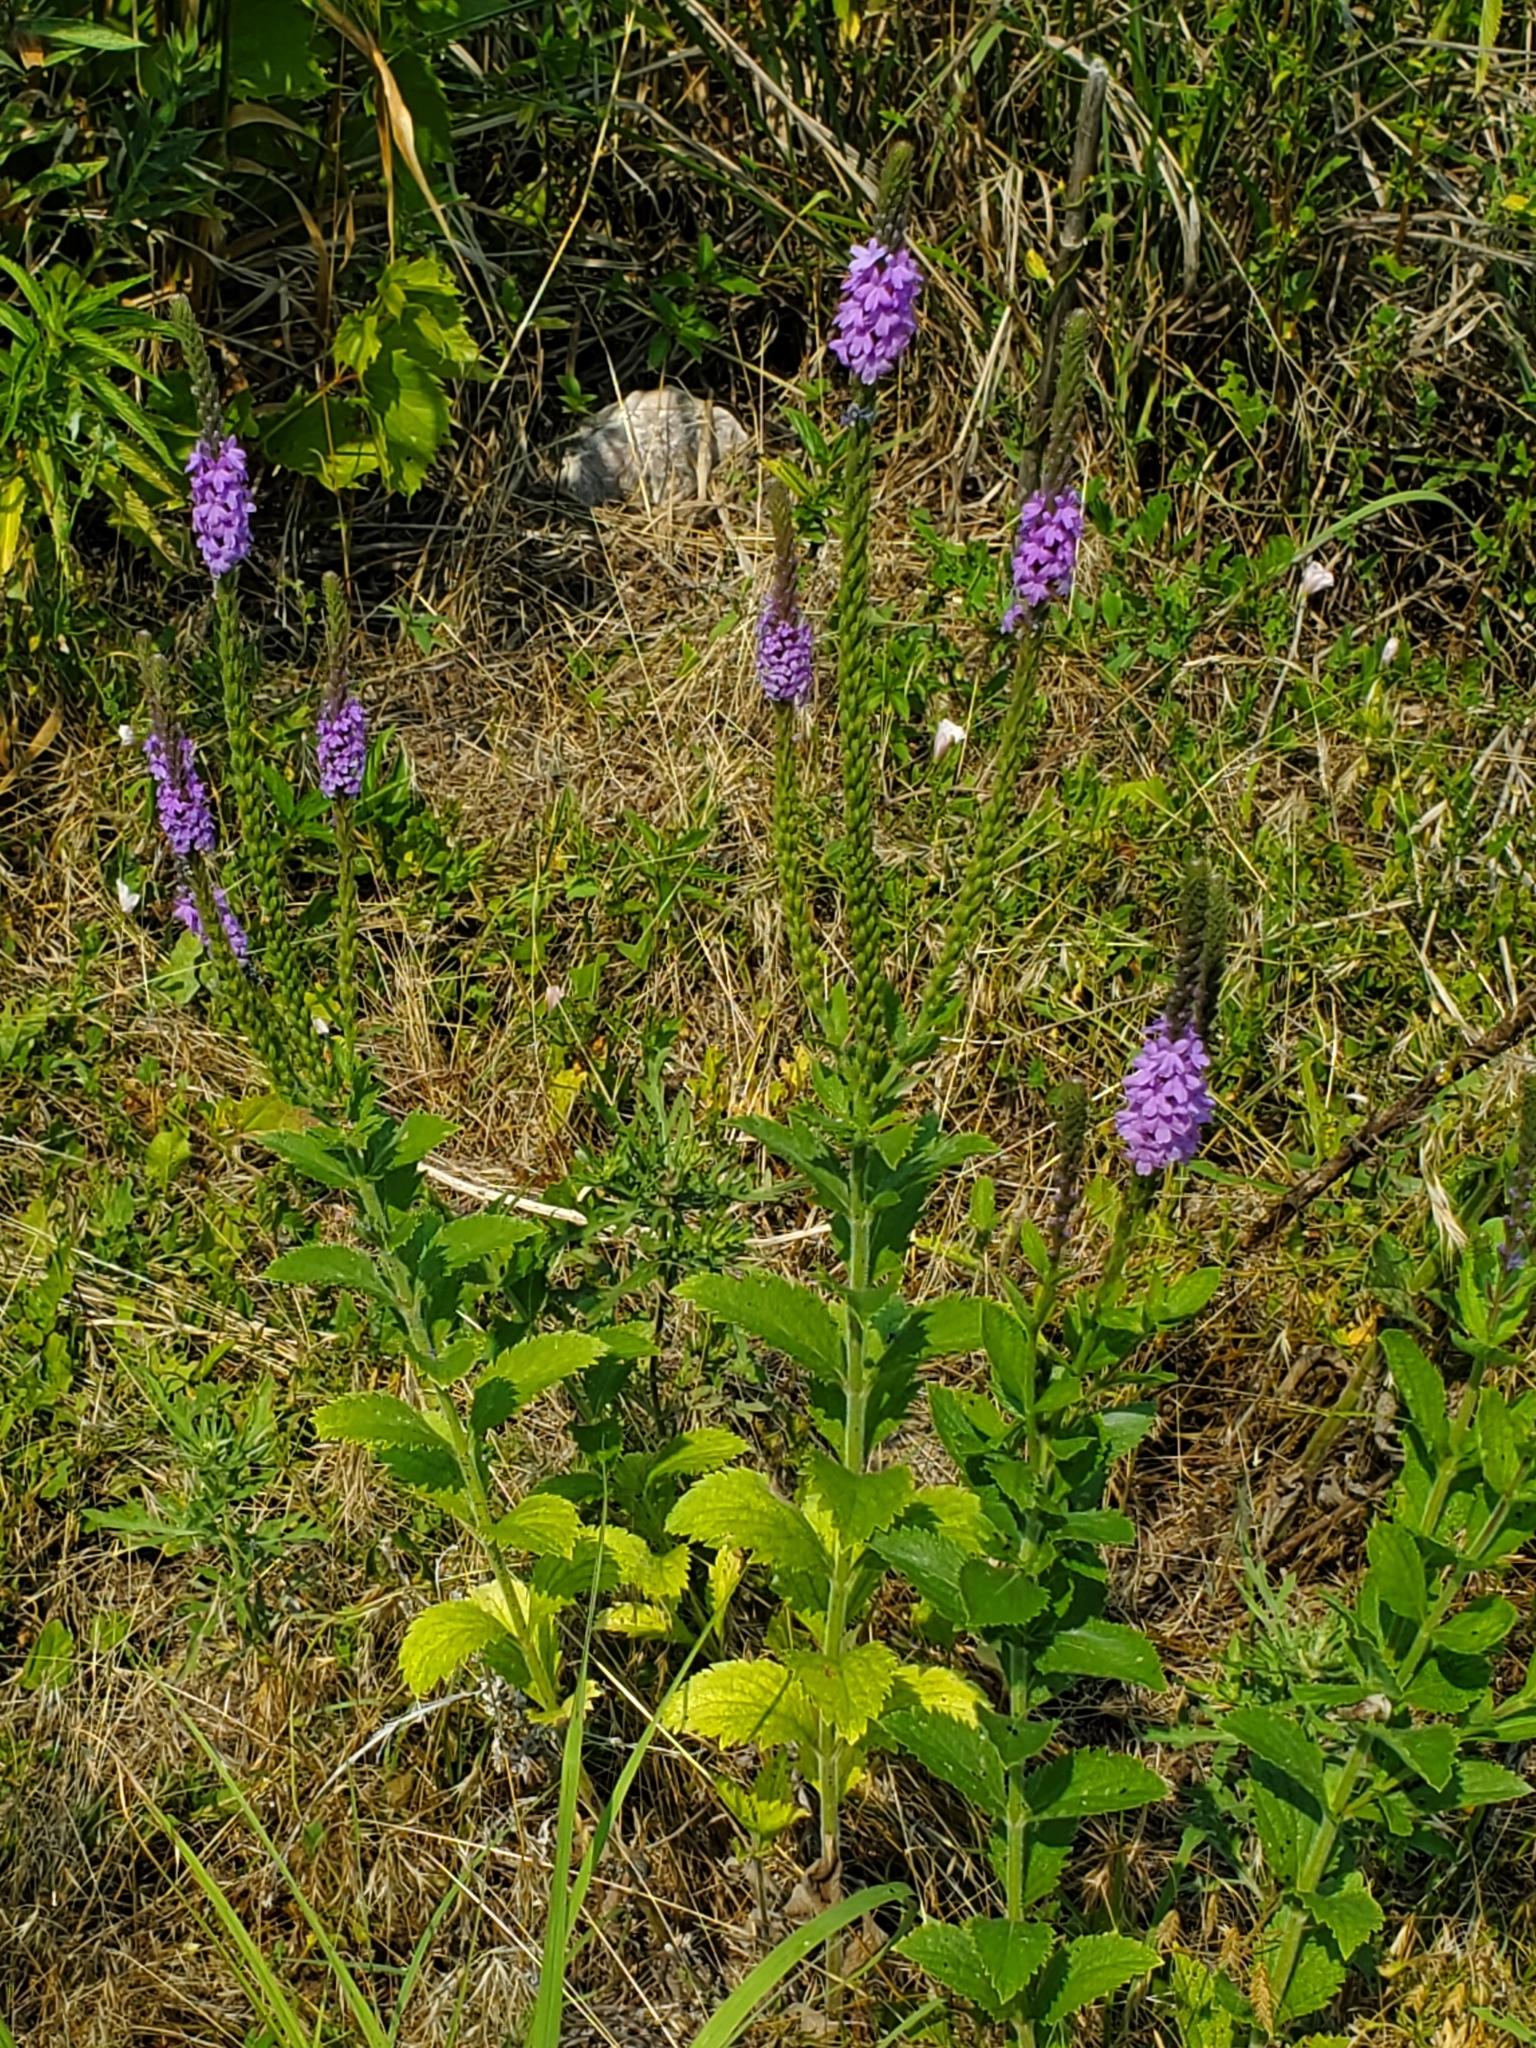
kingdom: Plantae
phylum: Tracheophyta
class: Magnoliopsida
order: Lamiales
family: Verbenaceae
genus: Verbena
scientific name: Verbena stricta
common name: Hoary vervain
